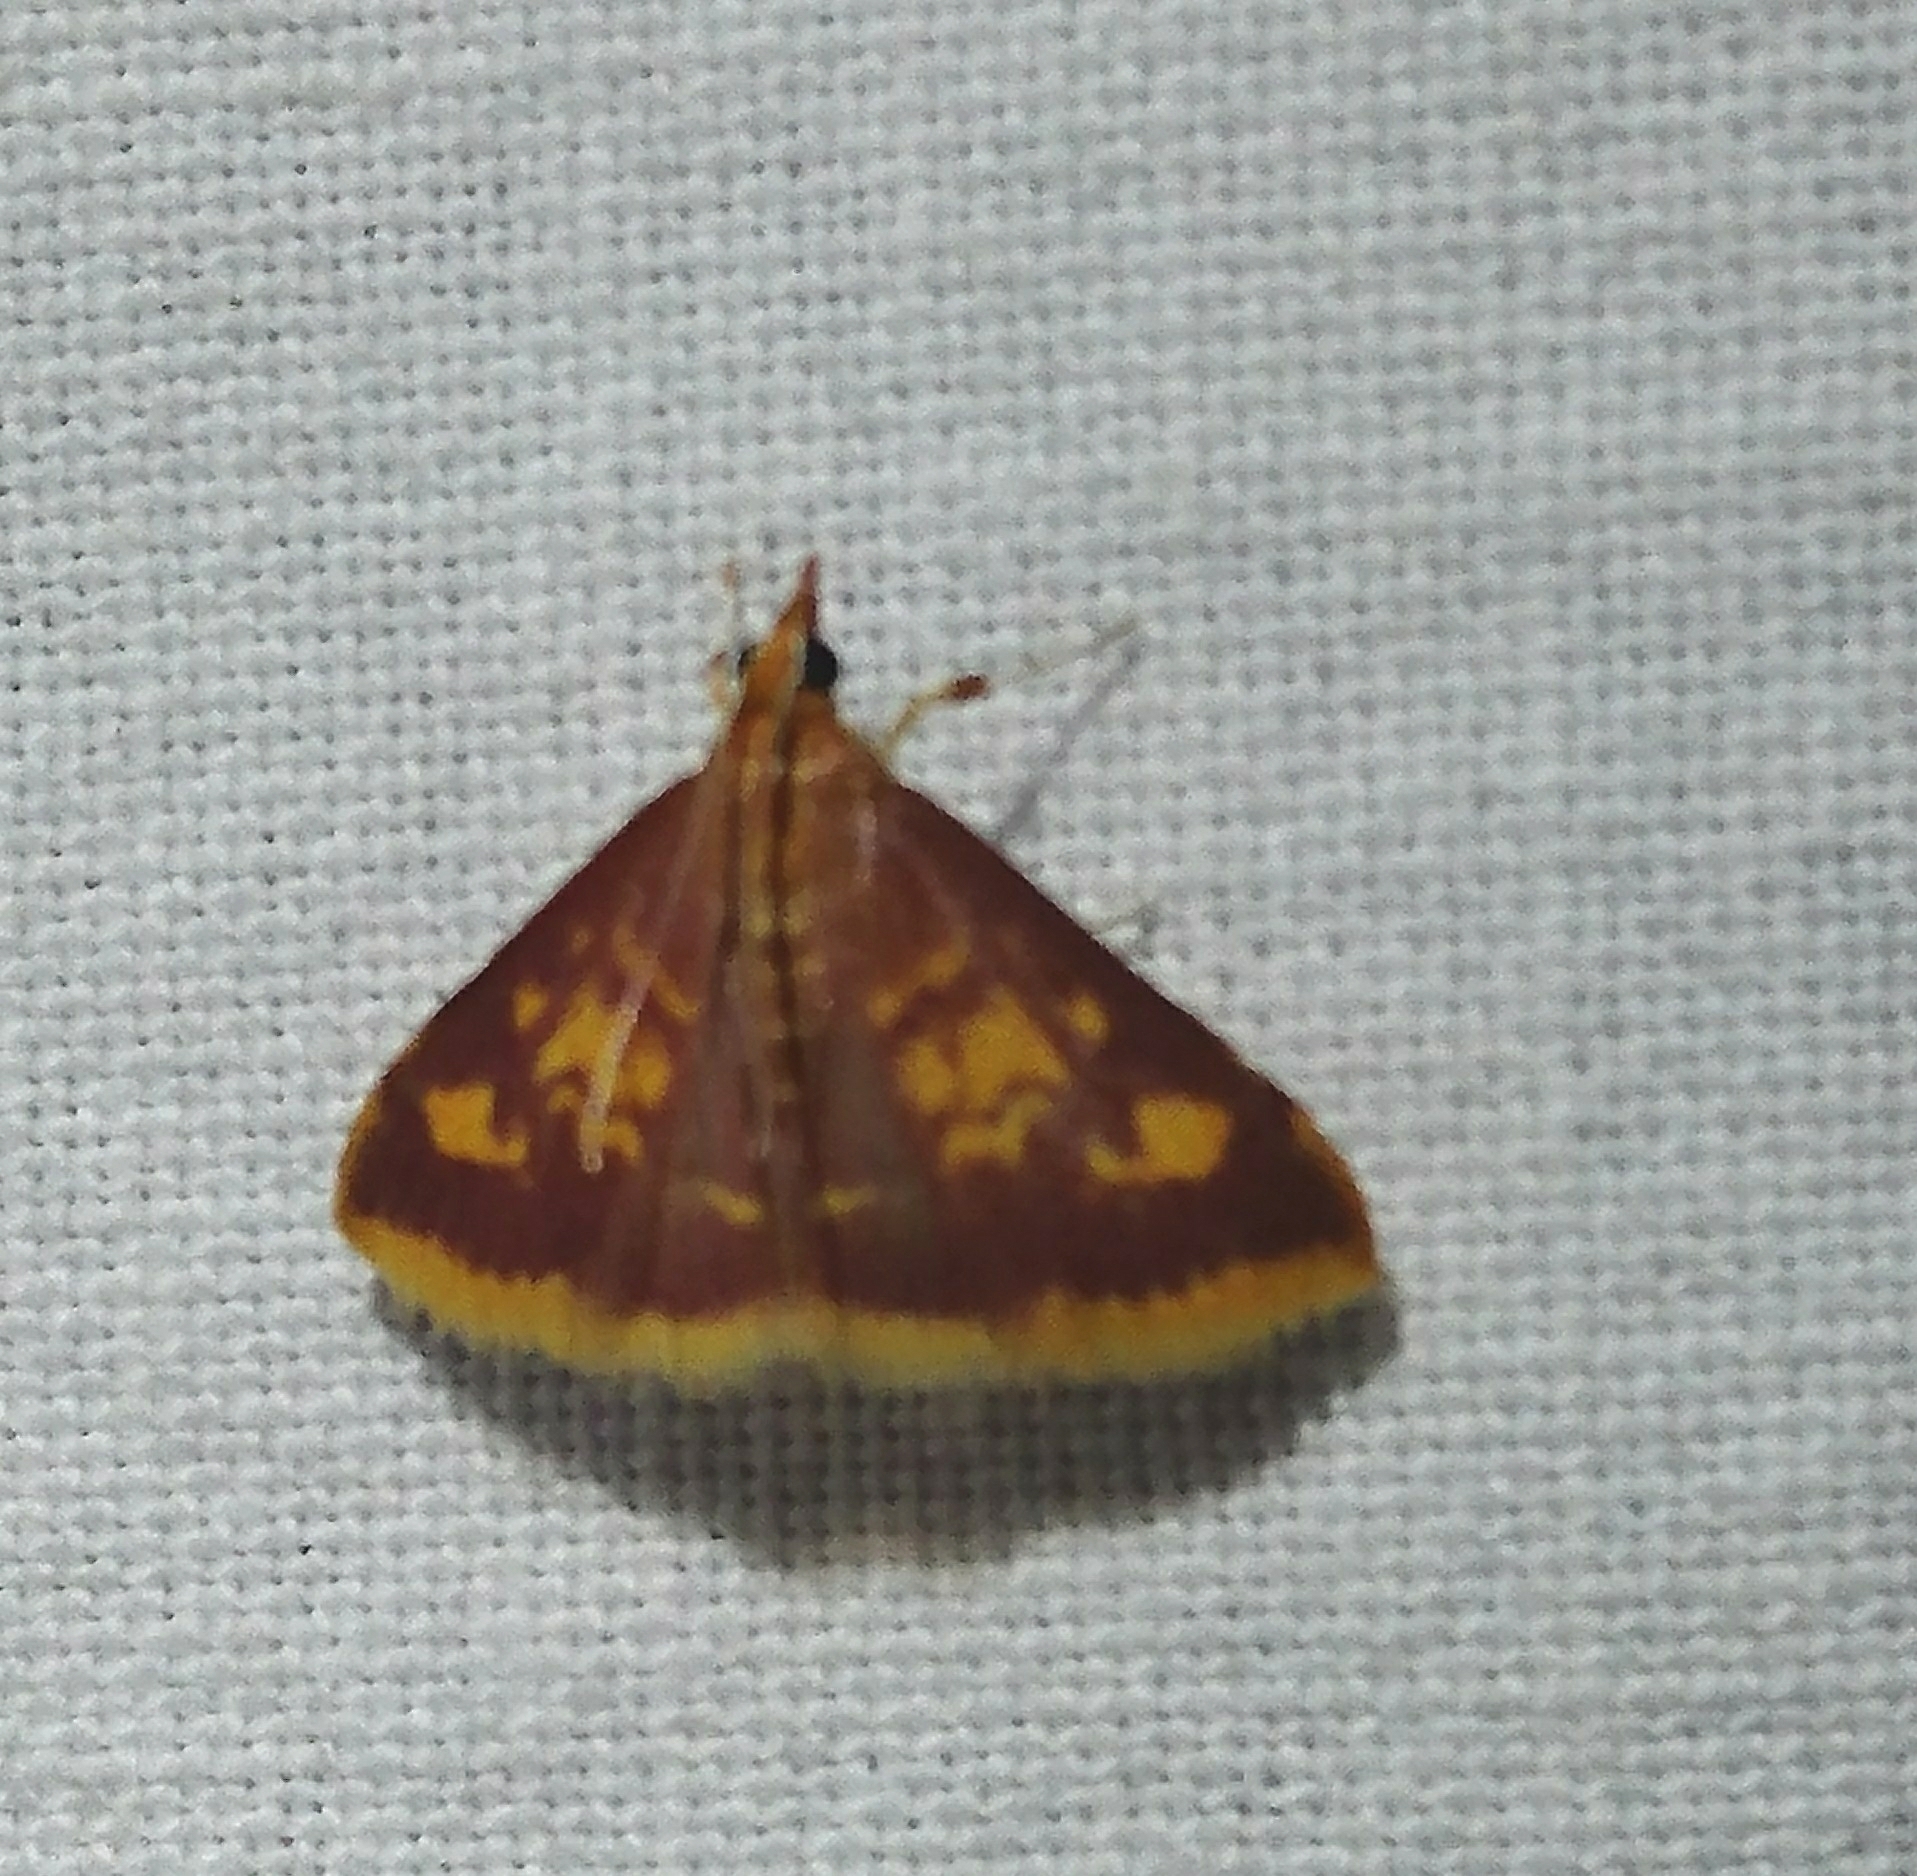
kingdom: Animalia
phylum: Arthropoda
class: Insecta
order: Lepidoptera
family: Crambidae
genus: Pyrausta
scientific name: Pyrausta acrionalis
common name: Mint-loving pyrausta moth
